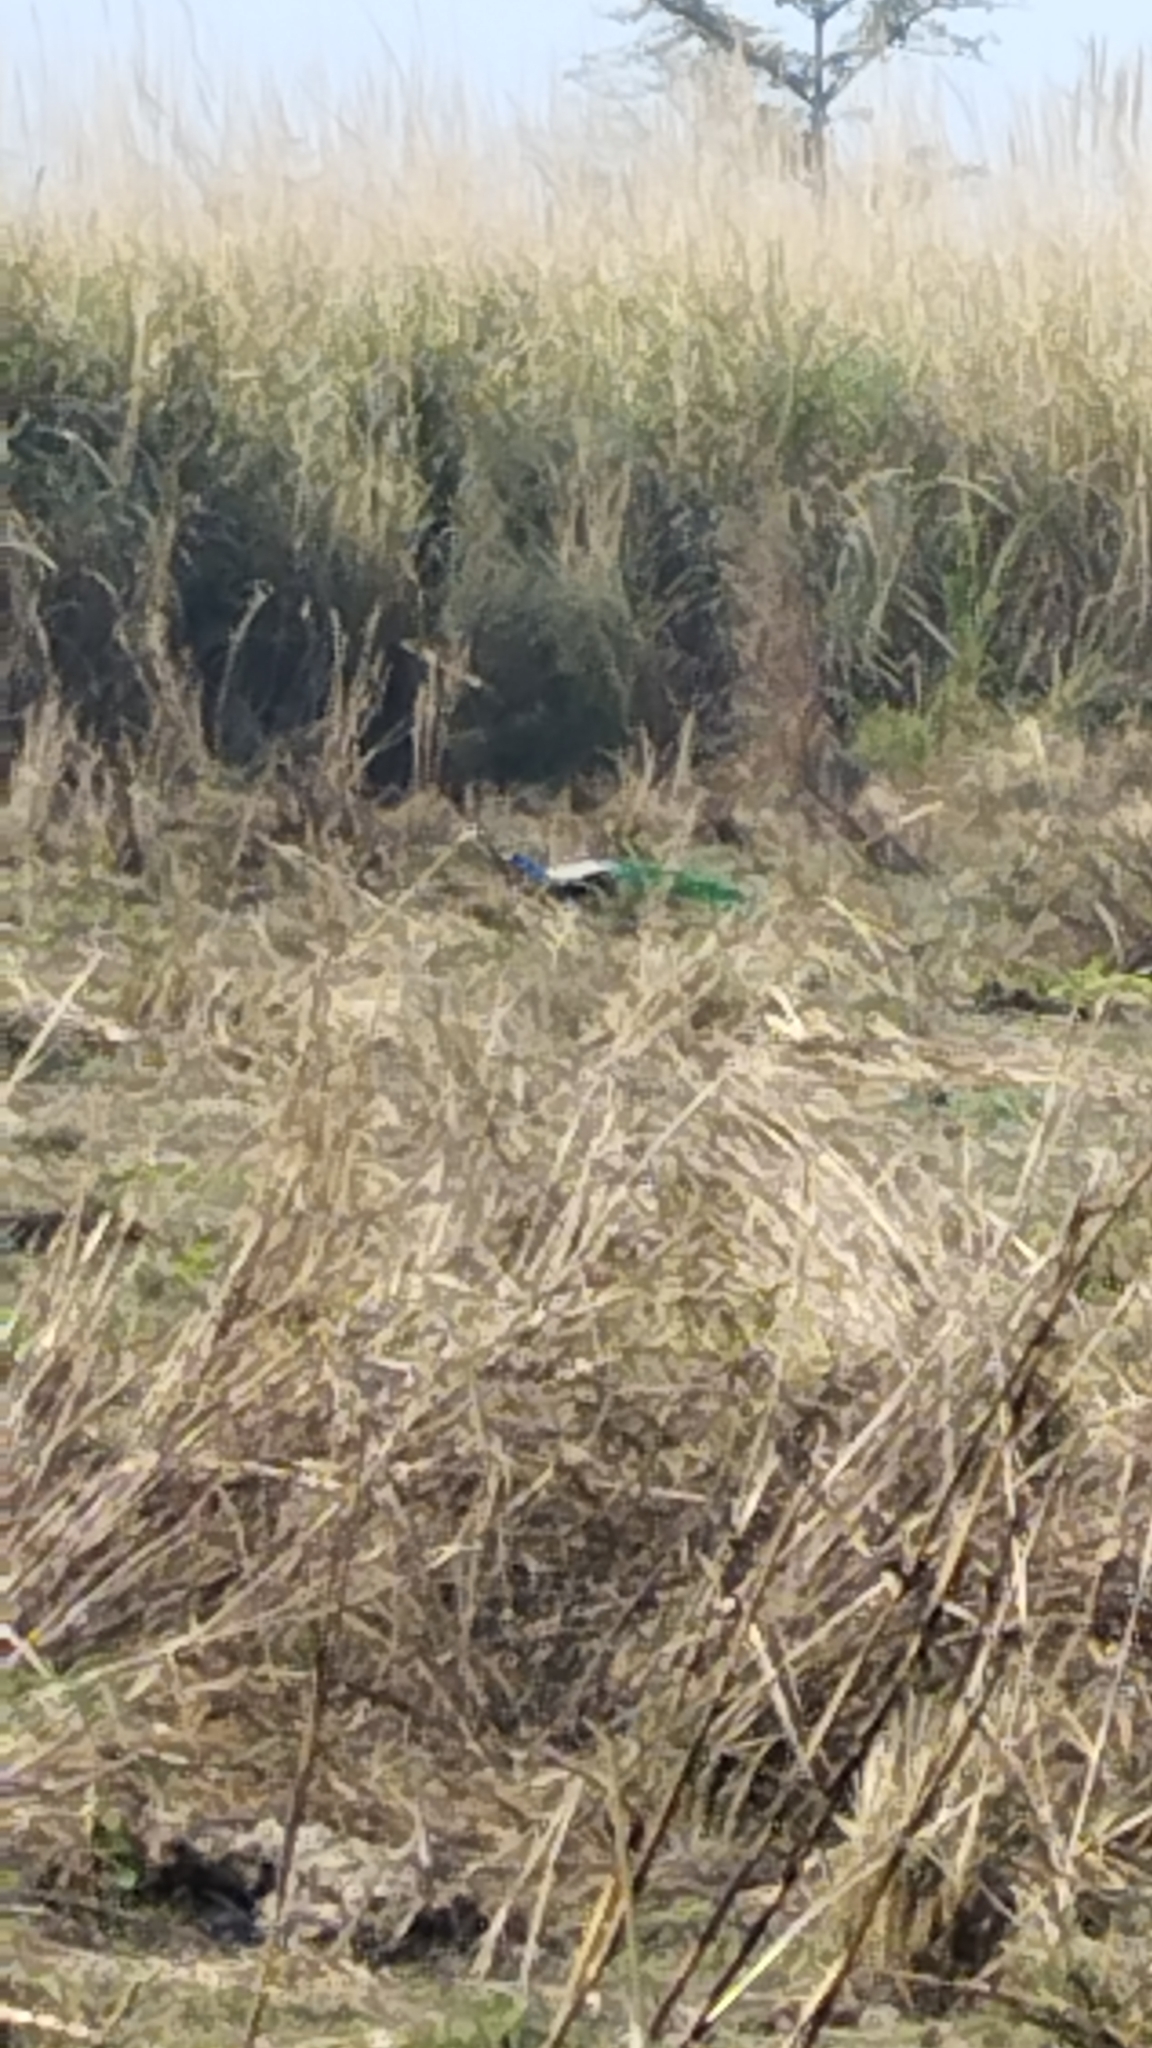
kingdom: Animalia
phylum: Chordata
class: Aves
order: Galliformes
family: Phasianidae
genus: Pavo
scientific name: Pavo cristatus
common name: Indian peafowl
